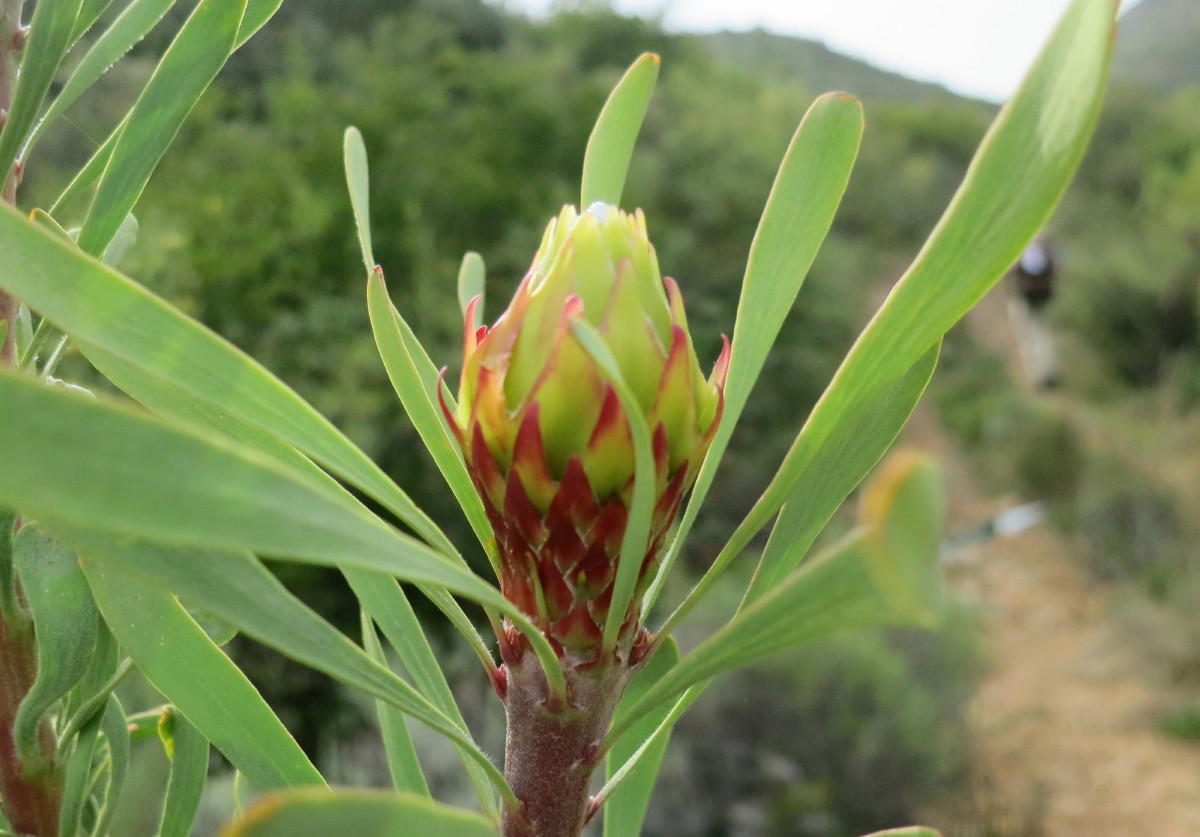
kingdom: Plantae
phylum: Tracheophyta
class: Magnoliopsida
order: Proteales
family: Proteaceae
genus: Leucadendron
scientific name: Leucadendron rubrum
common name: Spinning top
